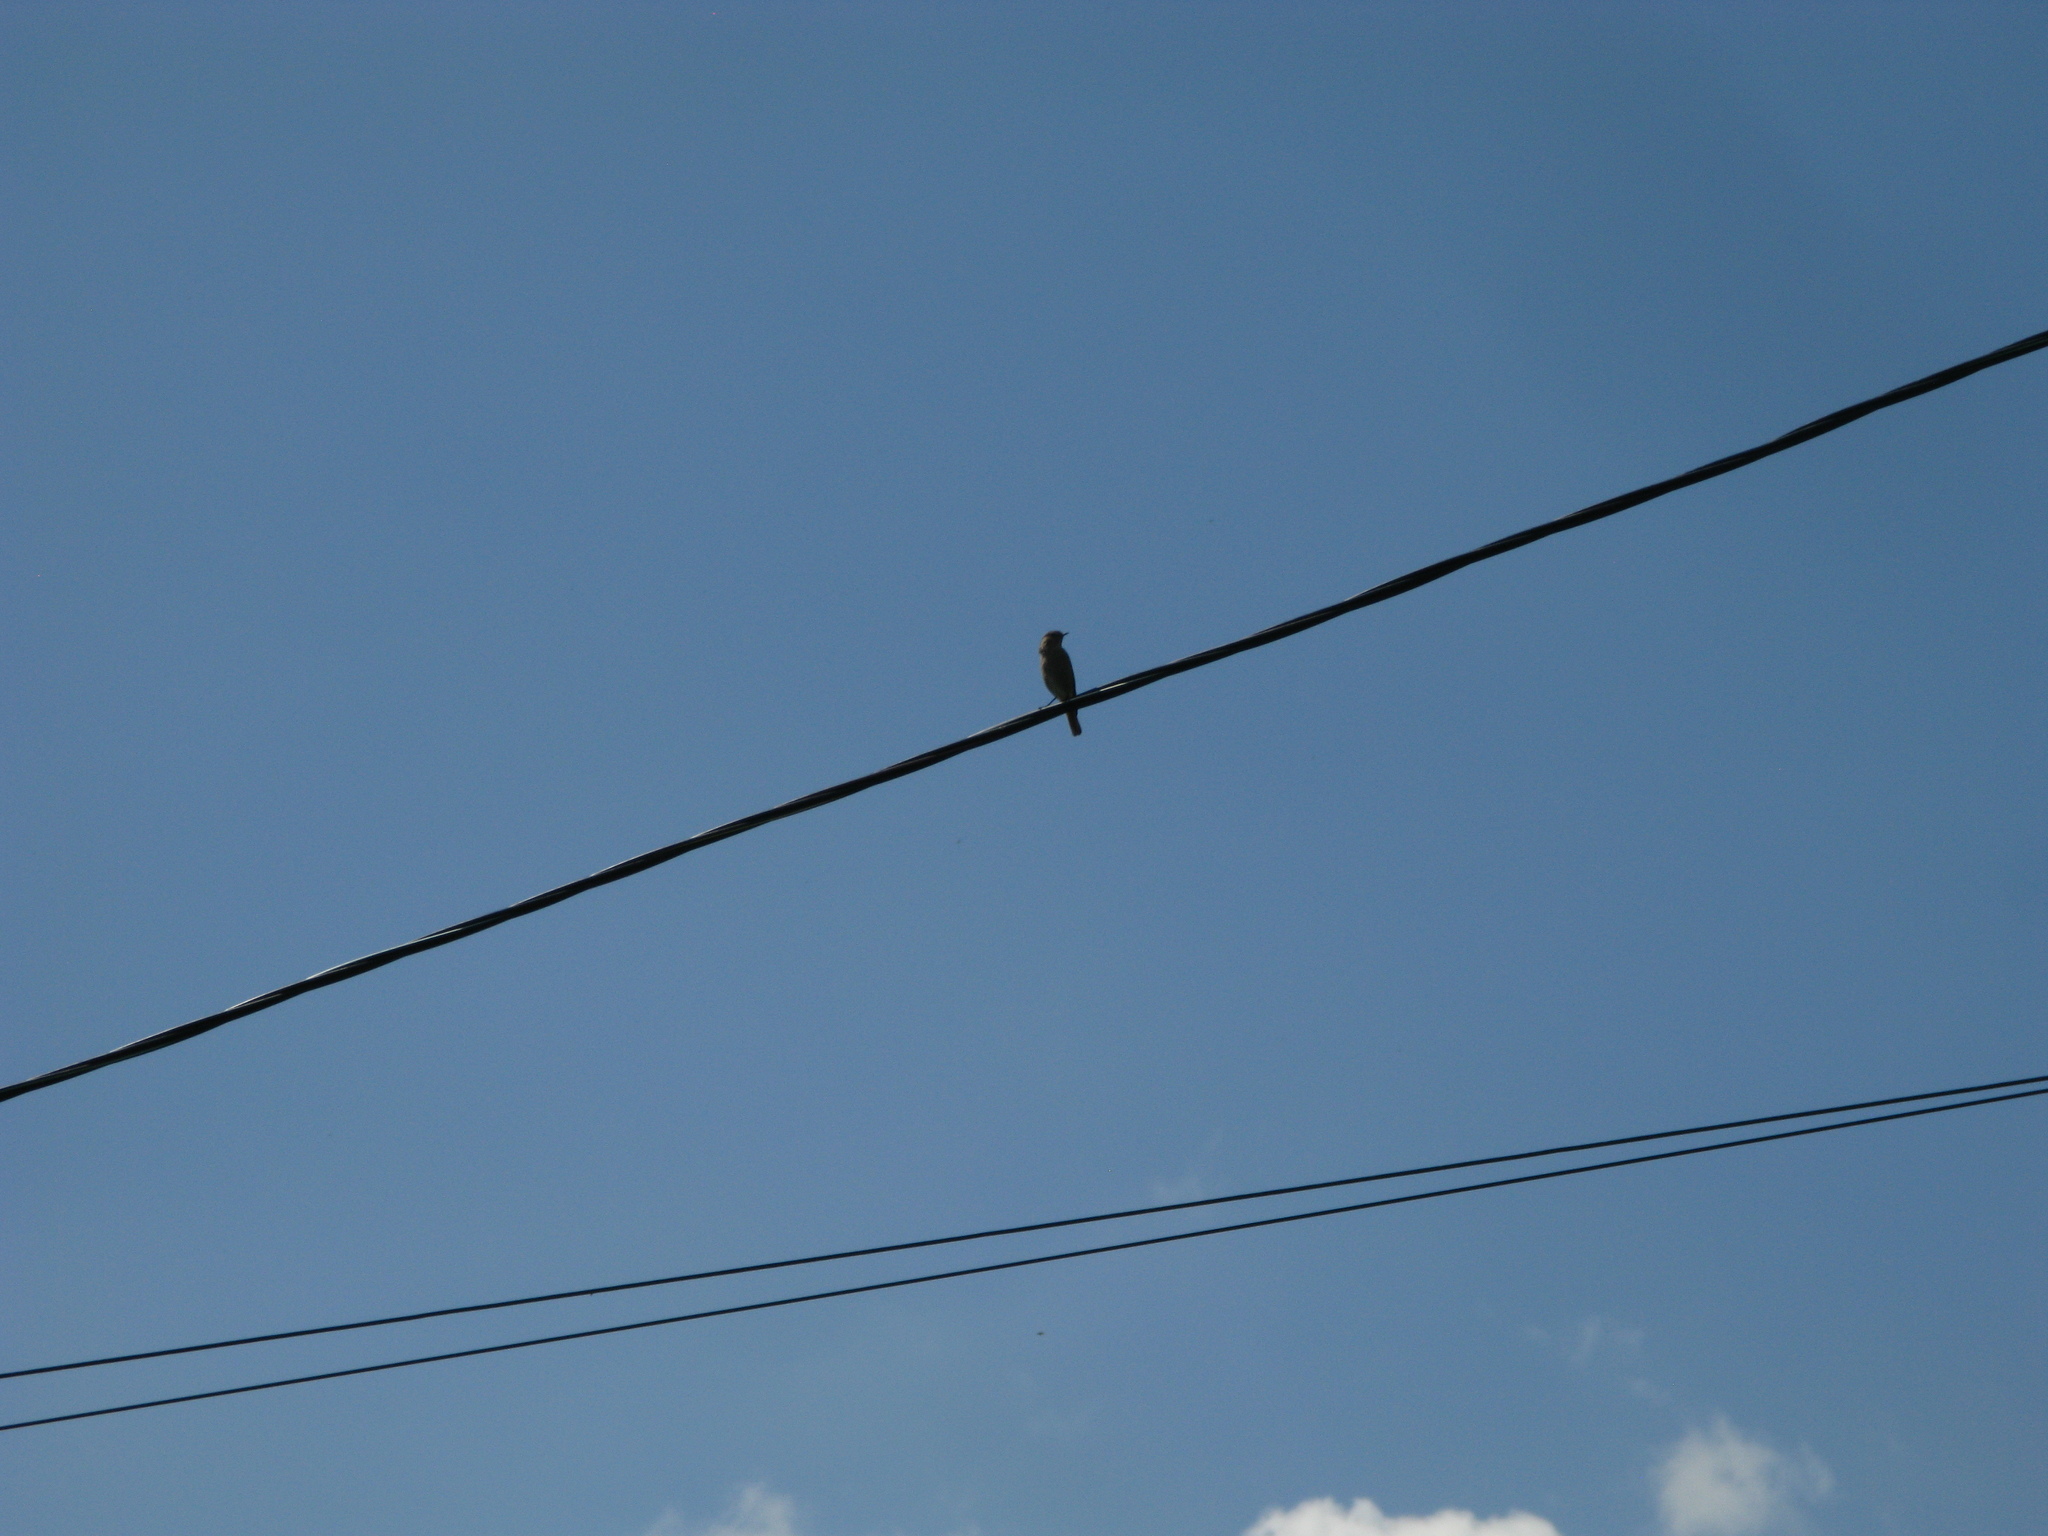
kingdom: Animalia
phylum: Chordata
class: Aves
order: Passeriformes
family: Muscicapidae
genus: Phoenicurus
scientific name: Phoenicurus
